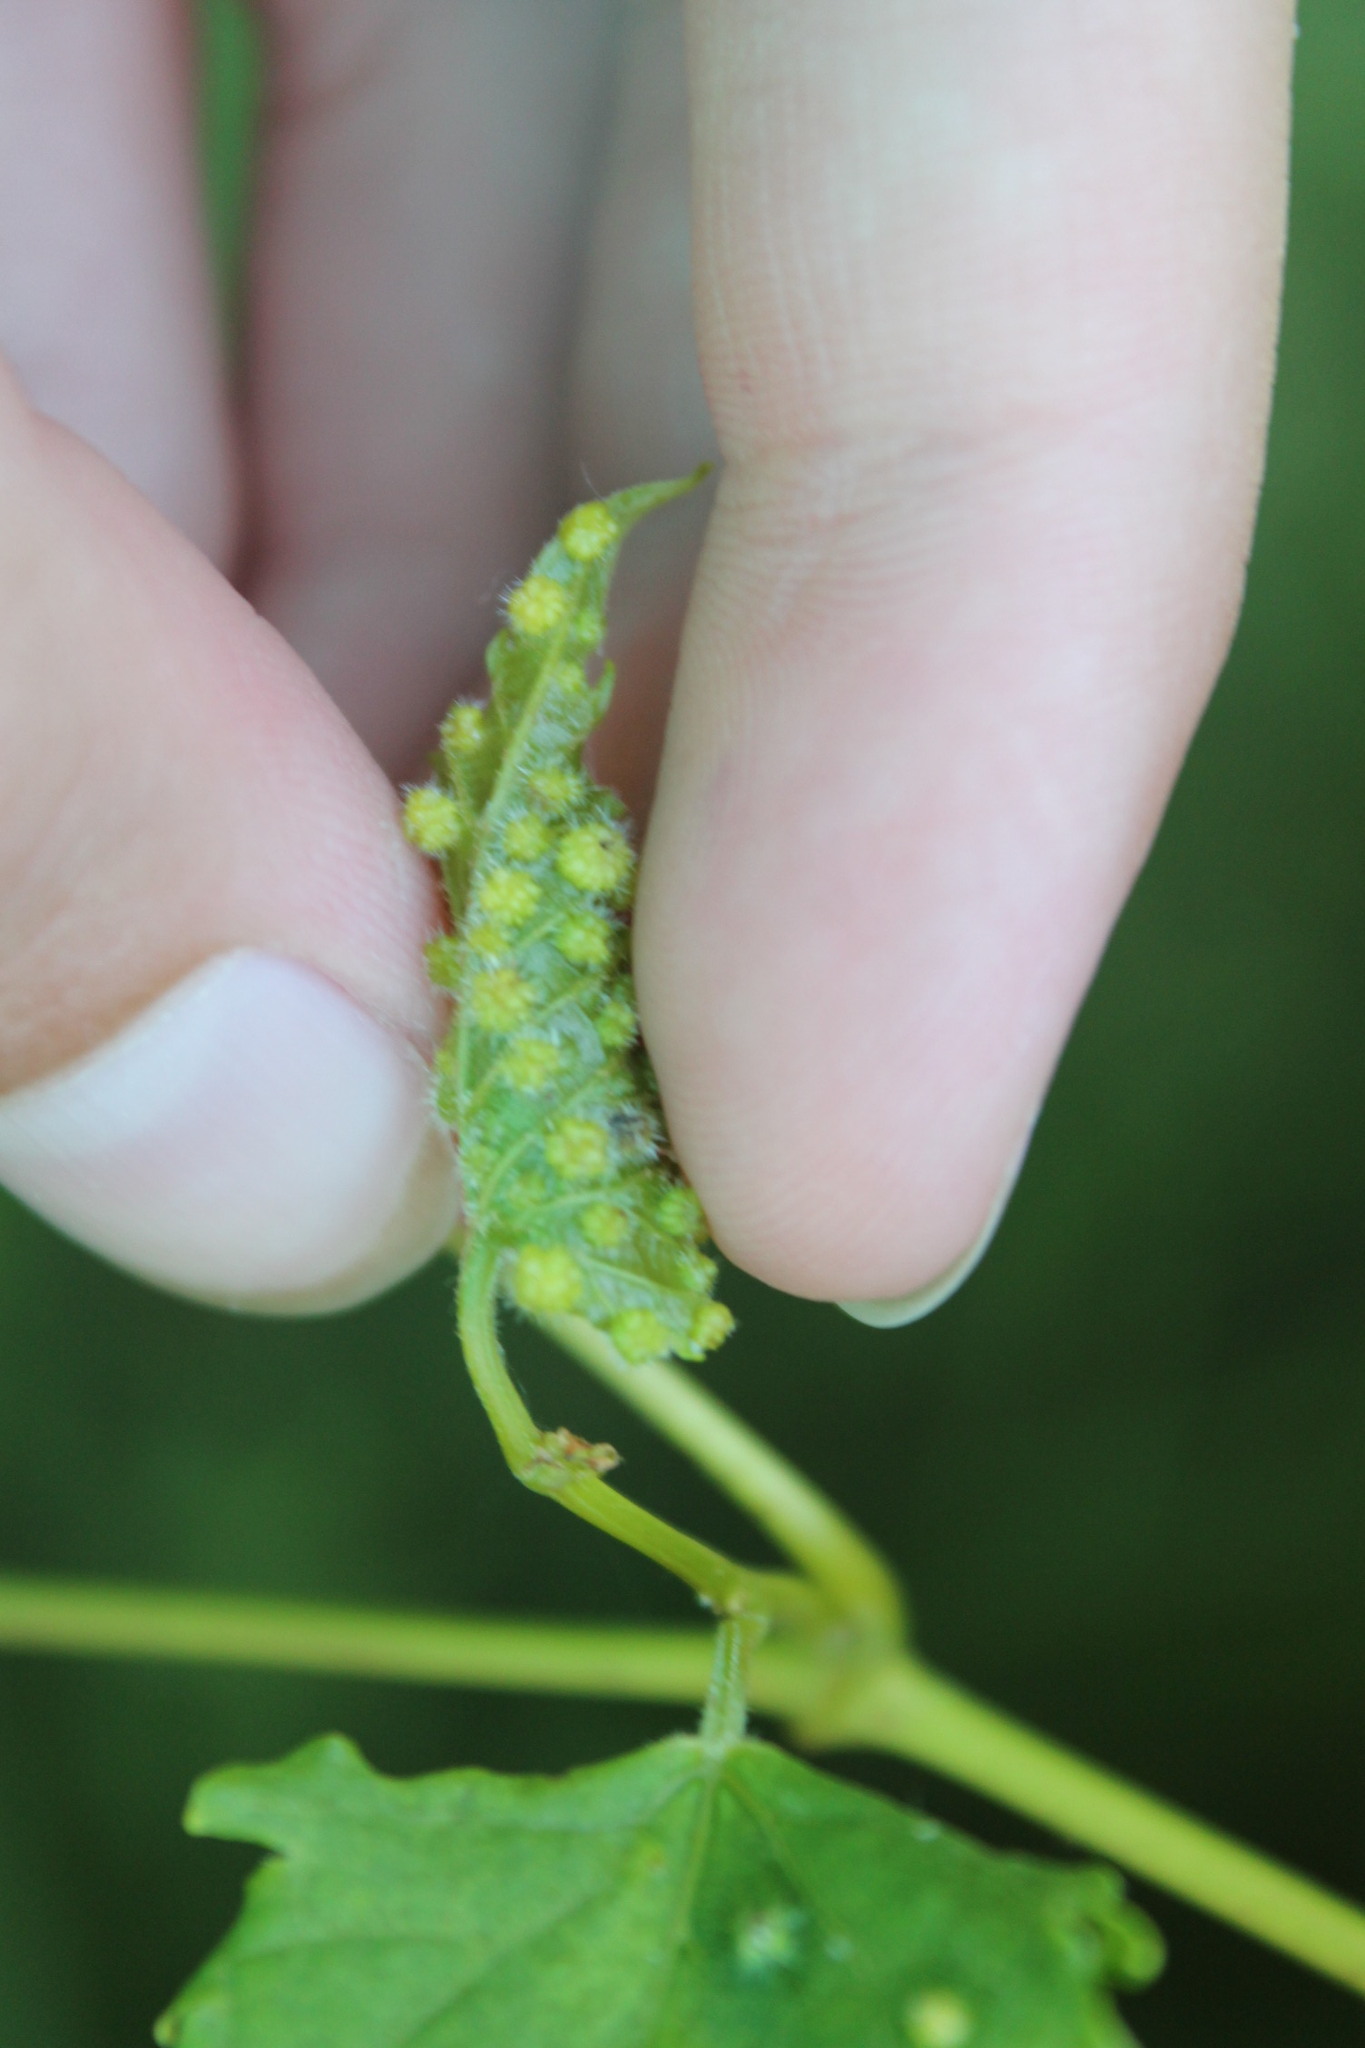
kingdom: Animalia
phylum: Arthropoda
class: Insecta
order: Hemiptera
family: Phylloxeridae
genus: Daktulosphaira
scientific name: Daktulosphaira vitifoliae
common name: Grape phylloxera
